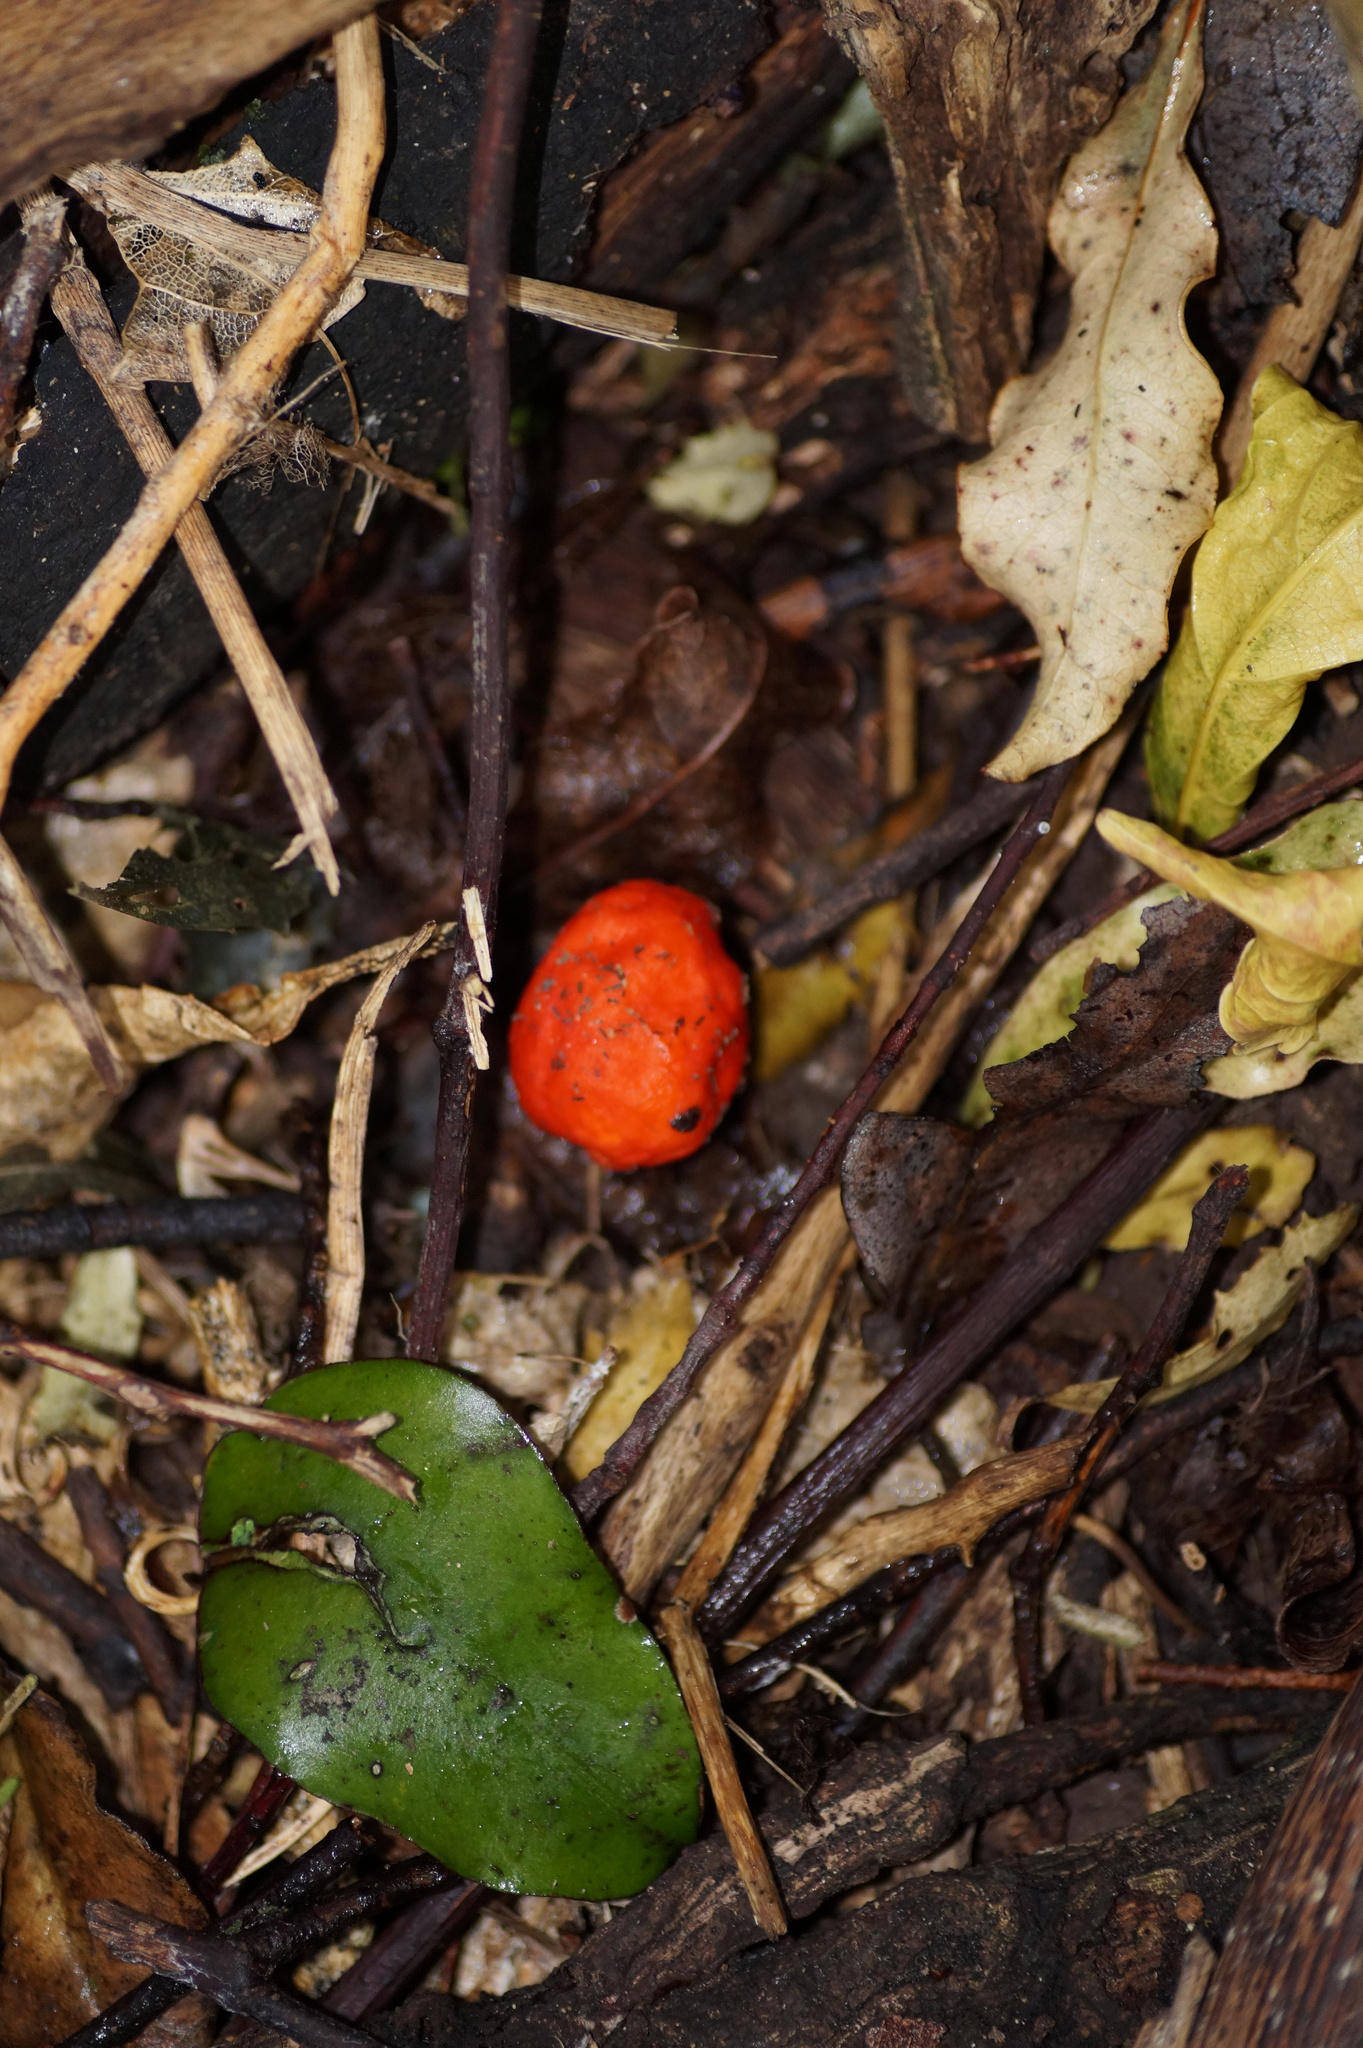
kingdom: Fungi
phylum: Basidiomycota
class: Agaricomycetes
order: Agaricales
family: Strophariaceae
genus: Leratiomyces
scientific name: Leratiomyces erythrocephalus
